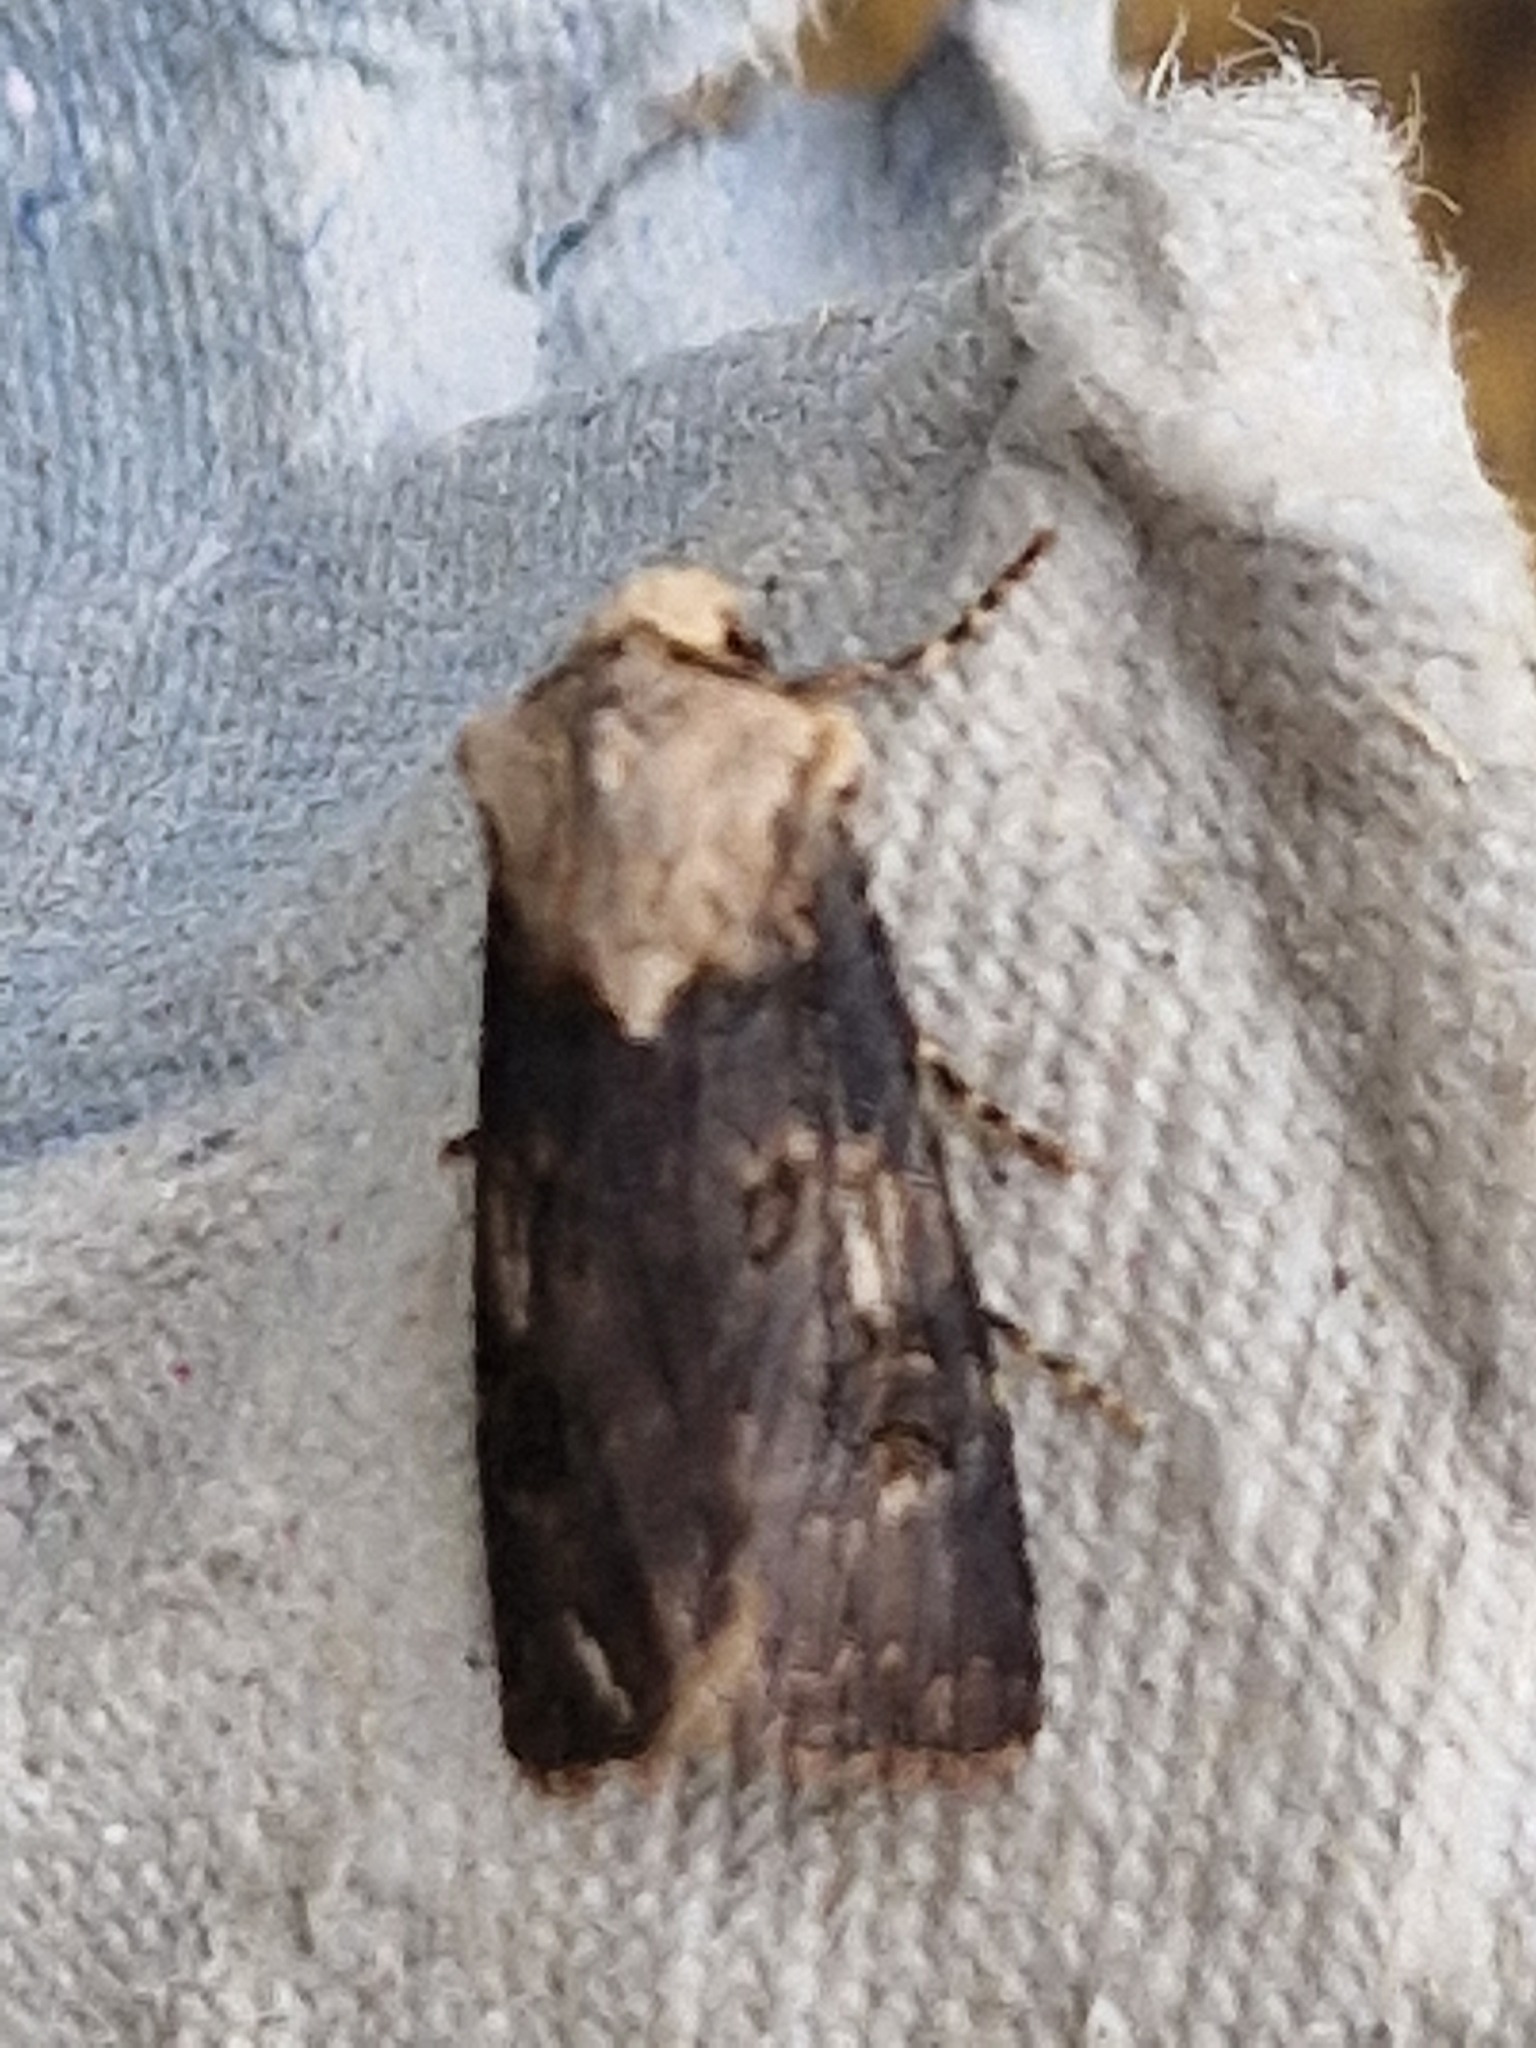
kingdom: Animalia
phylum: Arthropoda
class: Insecta
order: Lepidoptera
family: Noctuidae
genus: Agrotis
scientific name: Agrotis puta
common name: Shuttle-shaped dart
